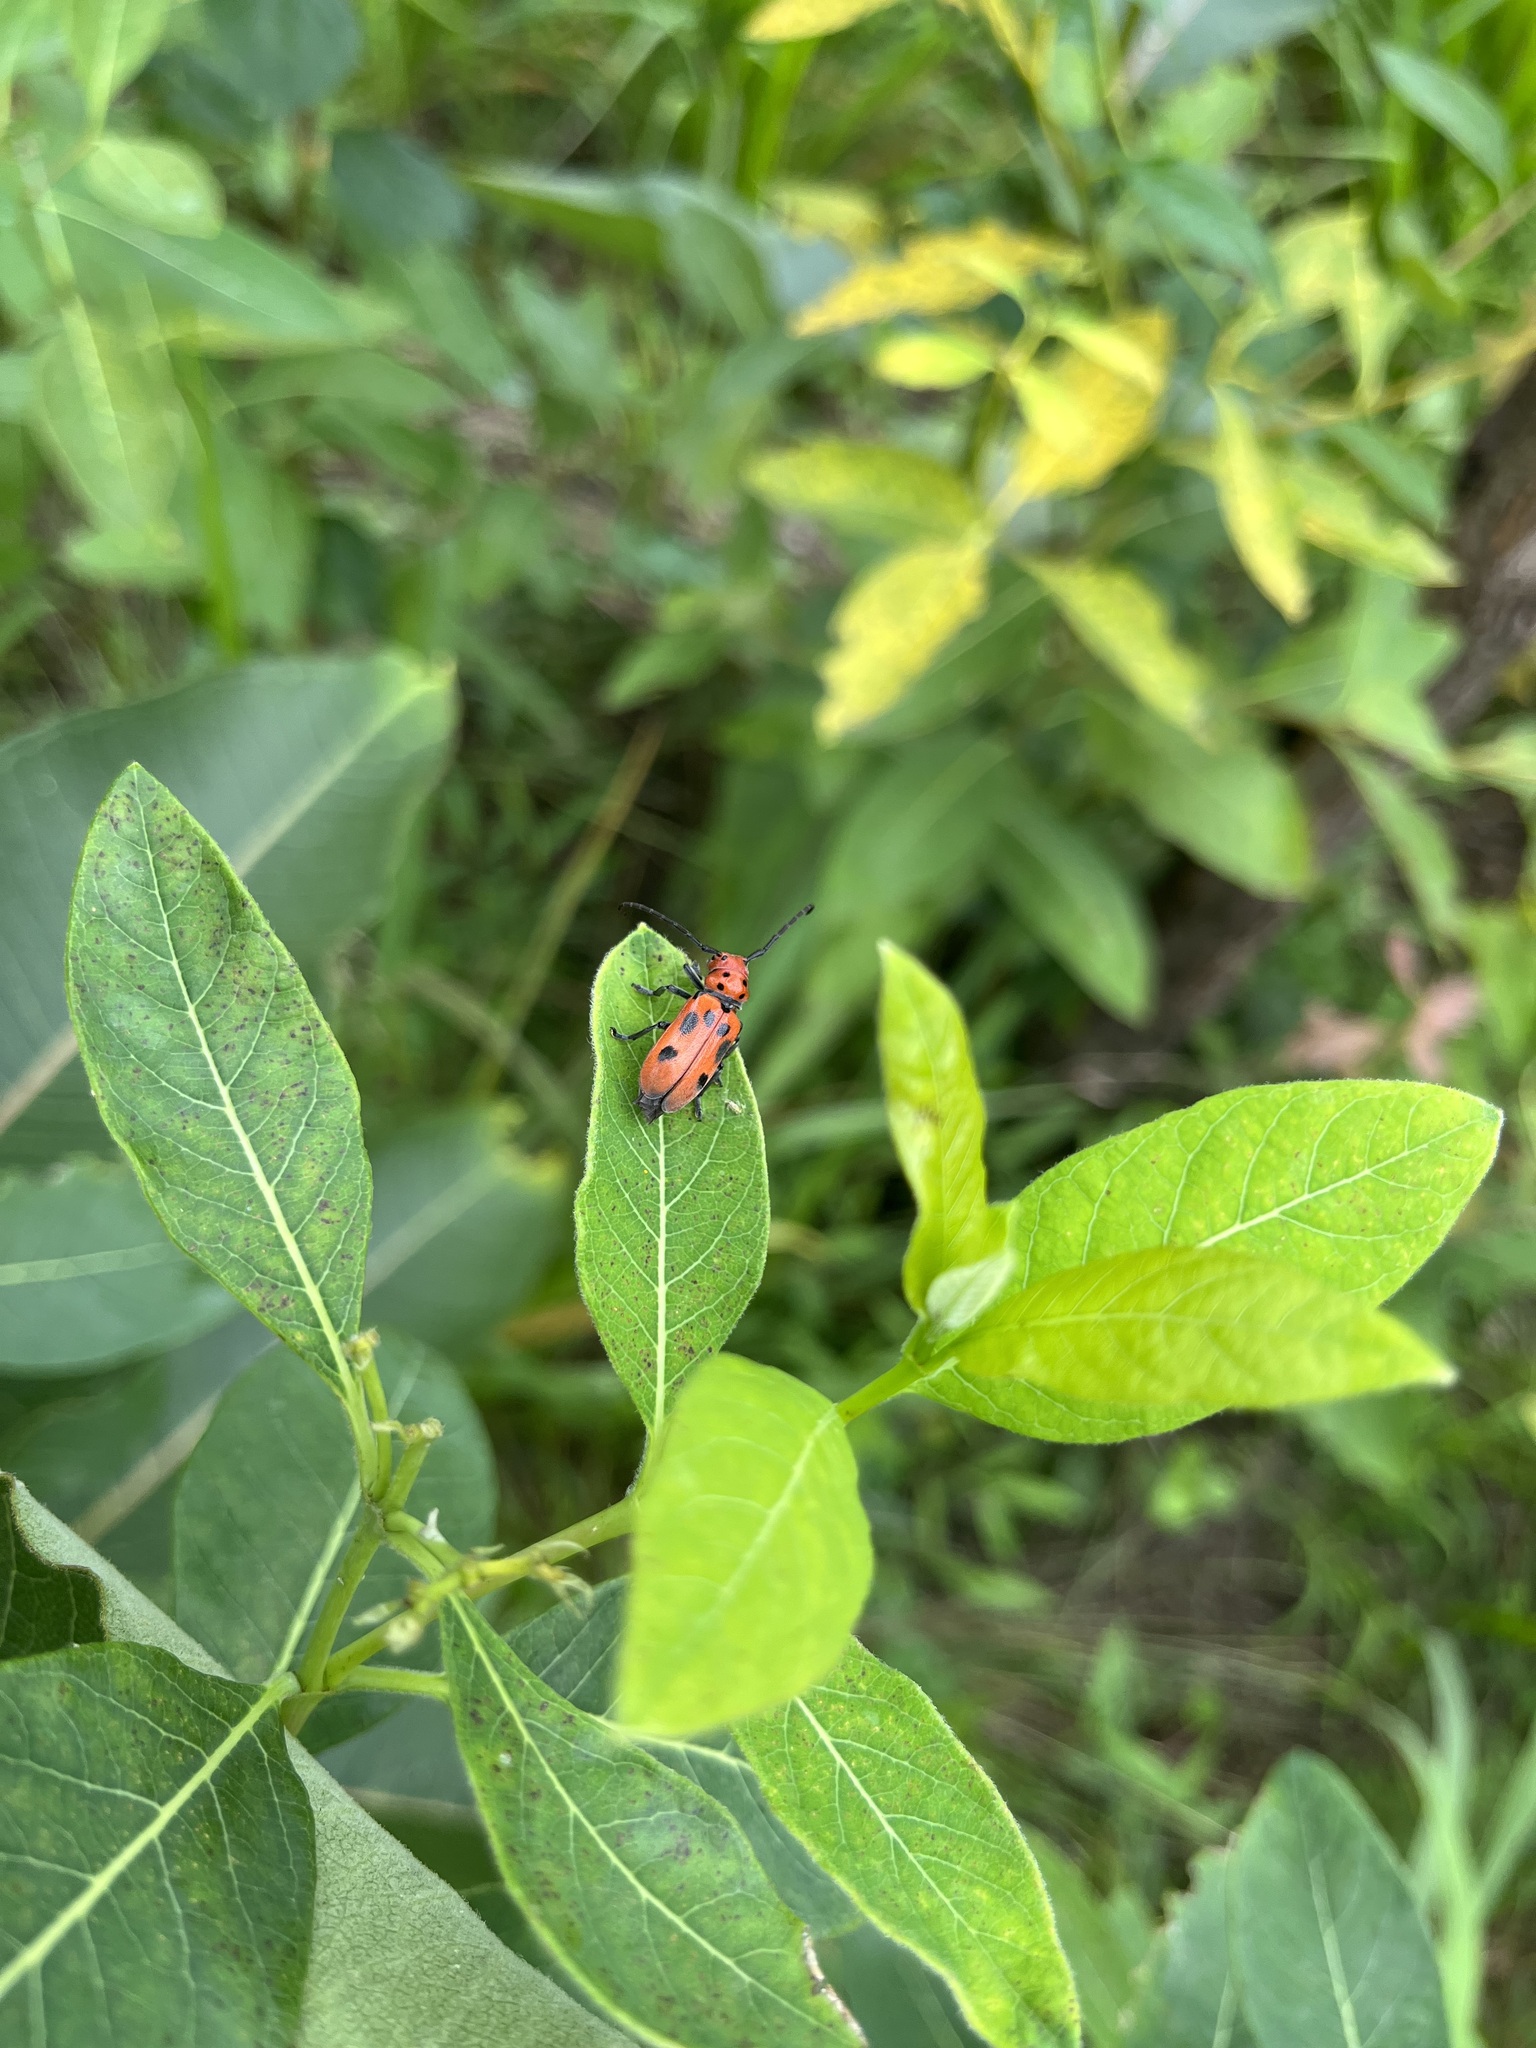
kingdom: Animalia
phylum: Arthropoda
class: Insecta
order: Coleoptera
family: Cerambycidae
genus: Tetraopes
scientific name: Tetraopes tetrophthalmus
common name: Red milkweed beetle
